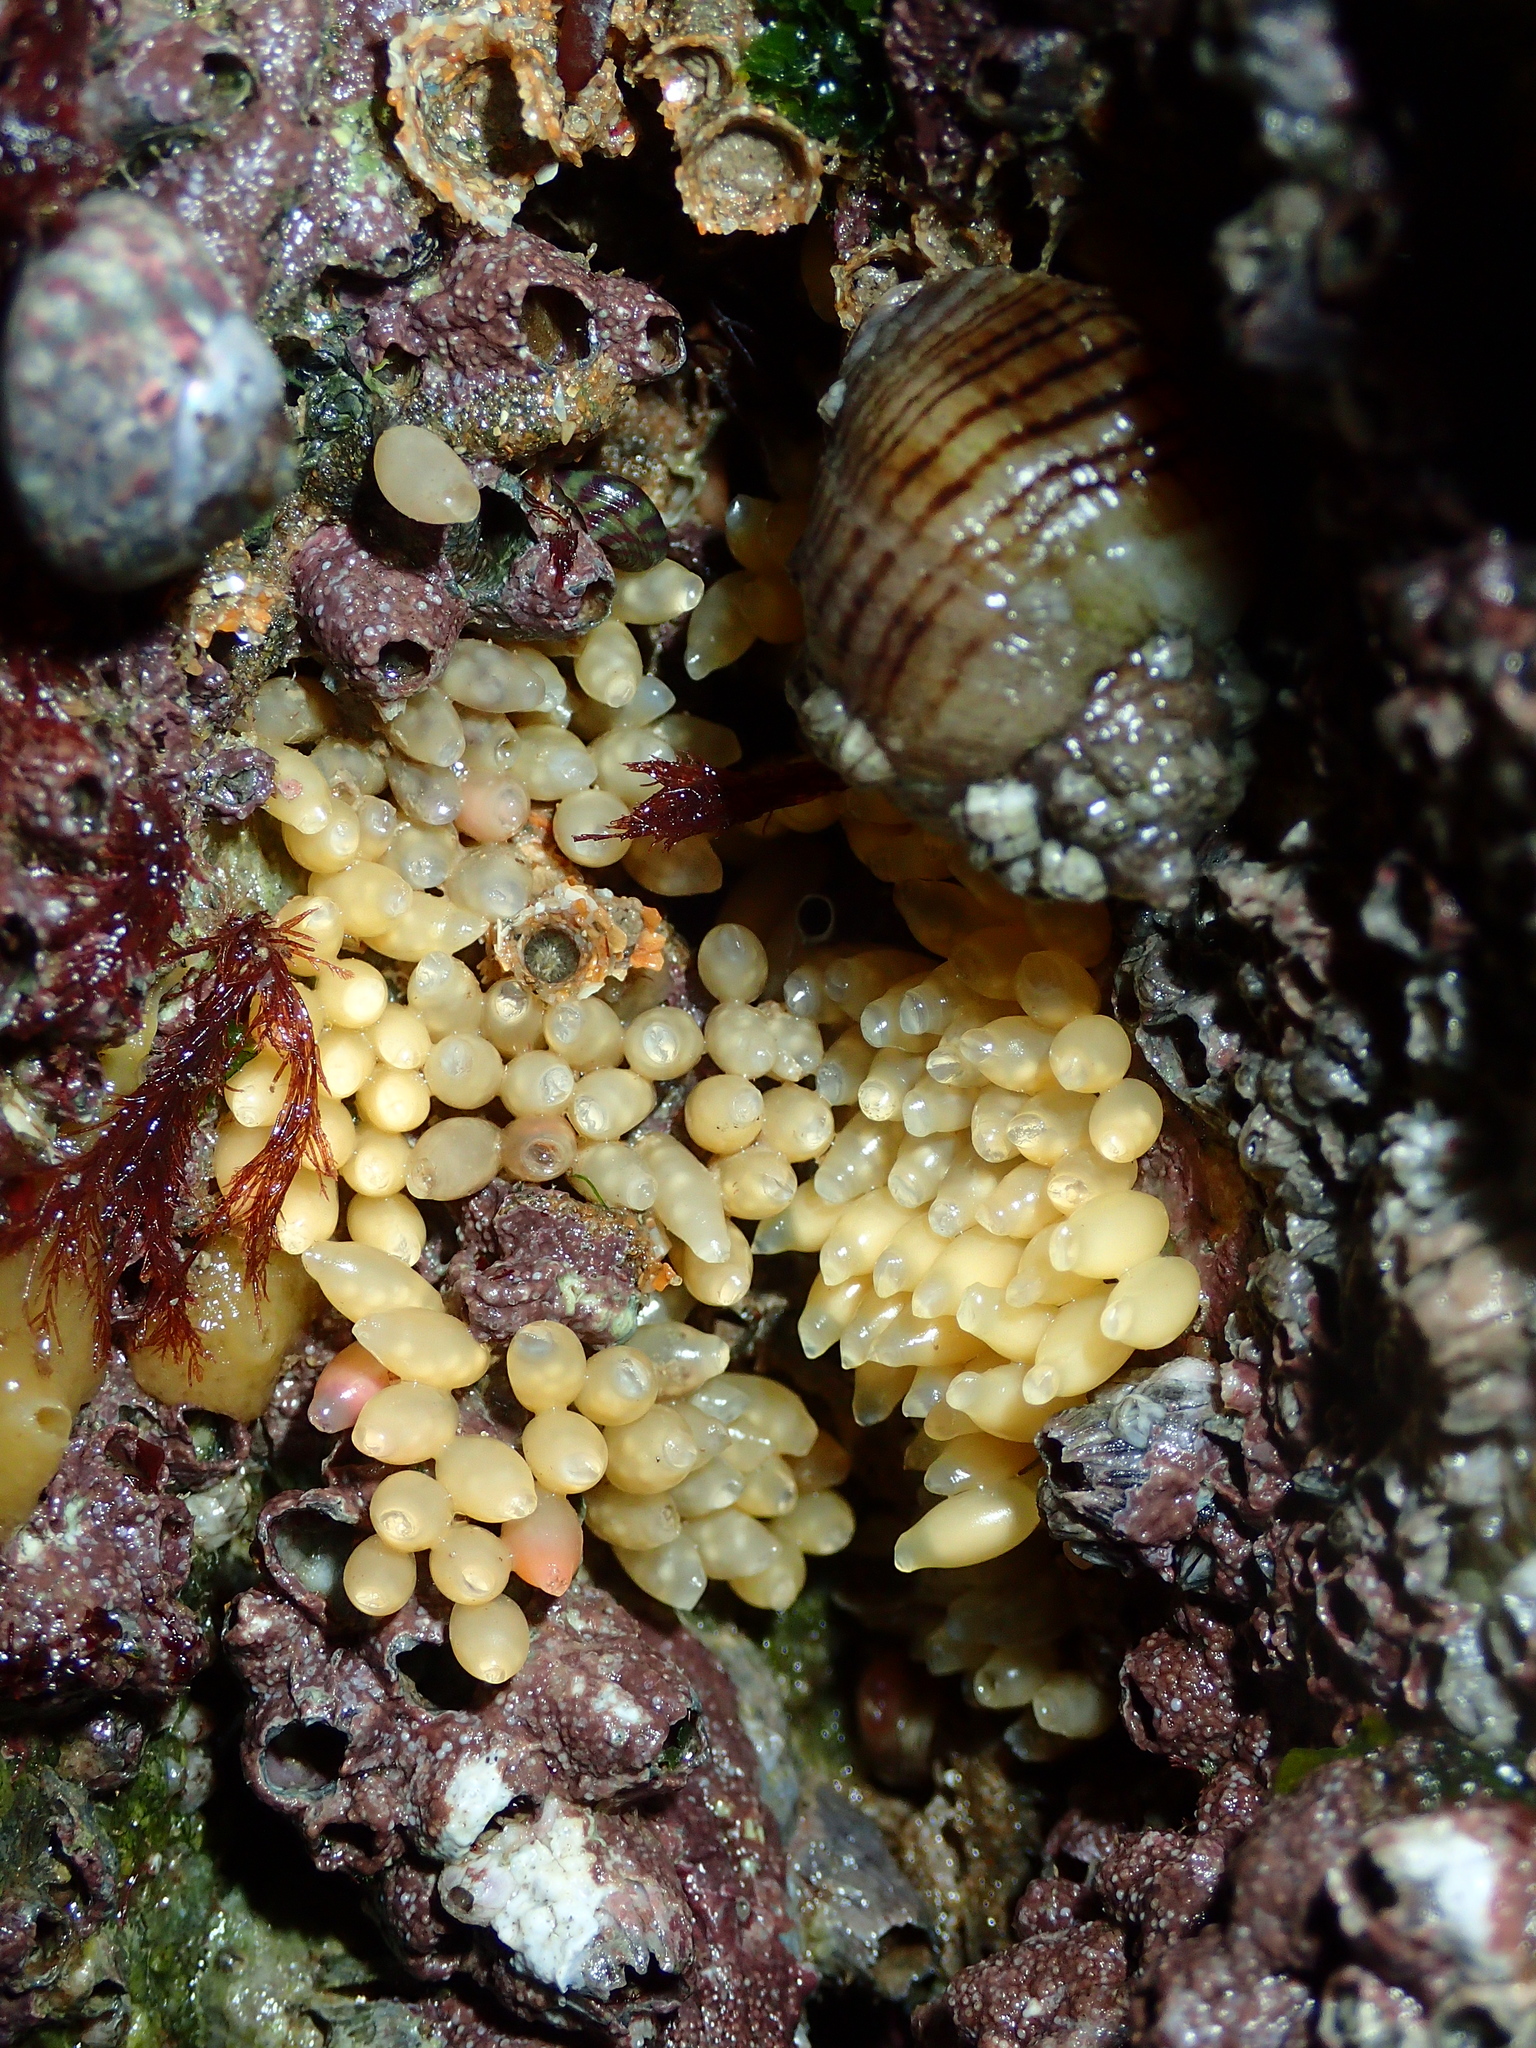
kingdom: Animalia
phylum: Mollusca
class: Gastropoda
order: Neogastropoda
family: Muricidae
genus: Nucella
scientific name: Nucella lapillus
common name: Dog whelk
